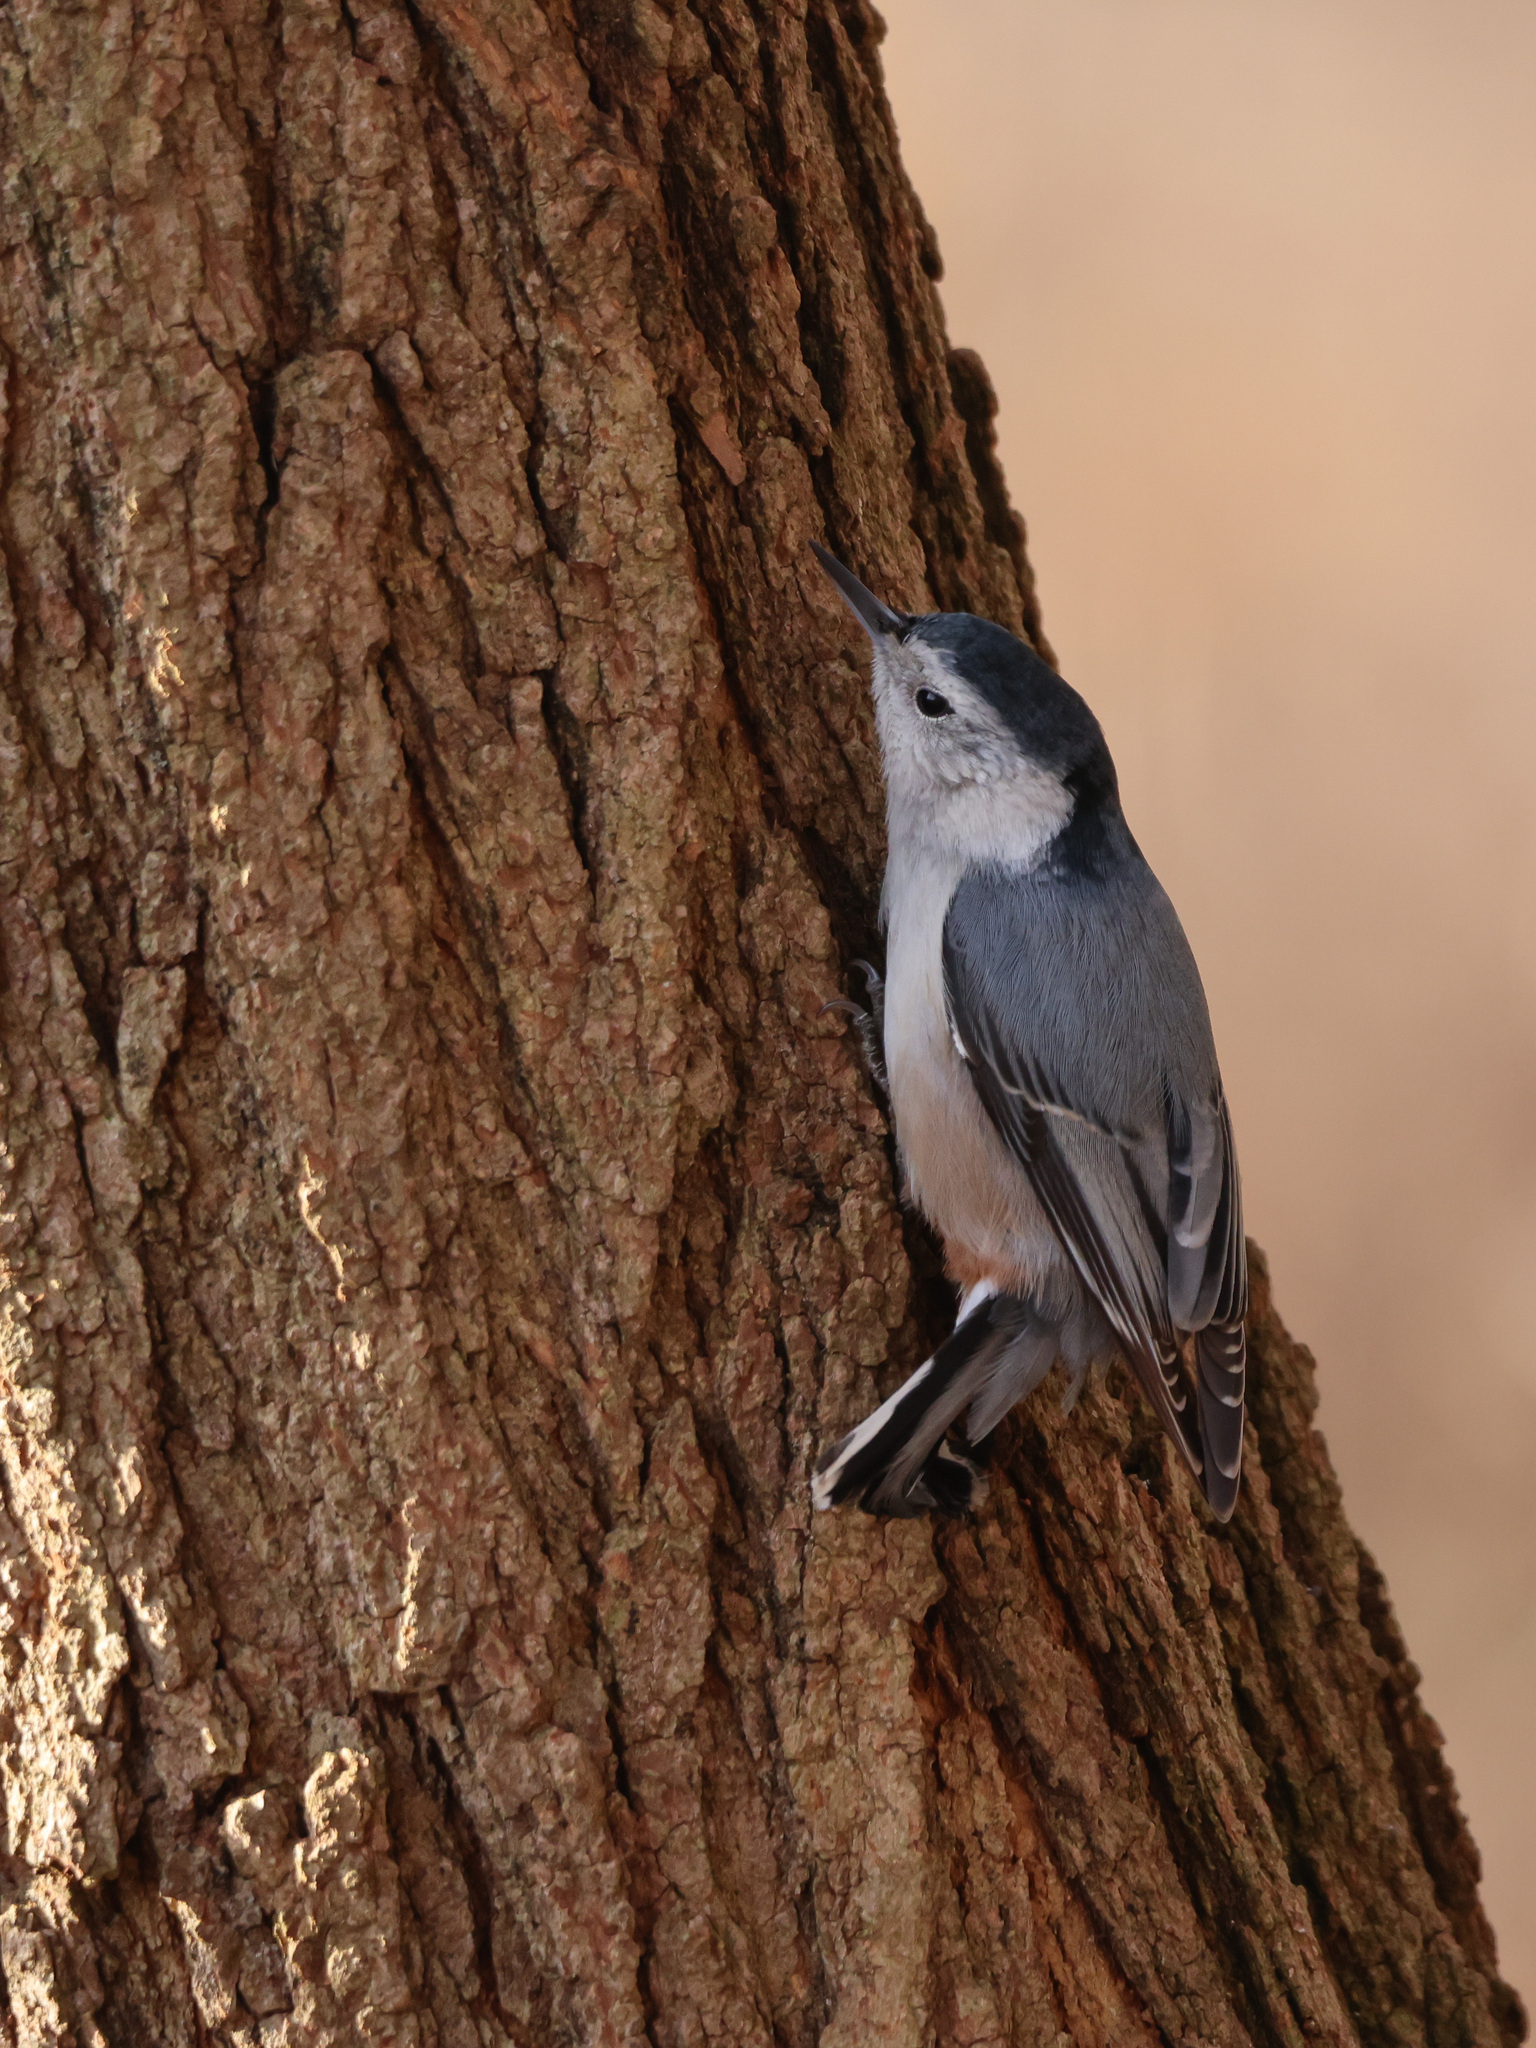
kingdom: Animalia
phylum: Chordata
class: Aves
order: Passeriformes
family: Sittidae
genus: Sitta
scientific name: Sitta carolinensis
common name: White-breasted nuthatch
